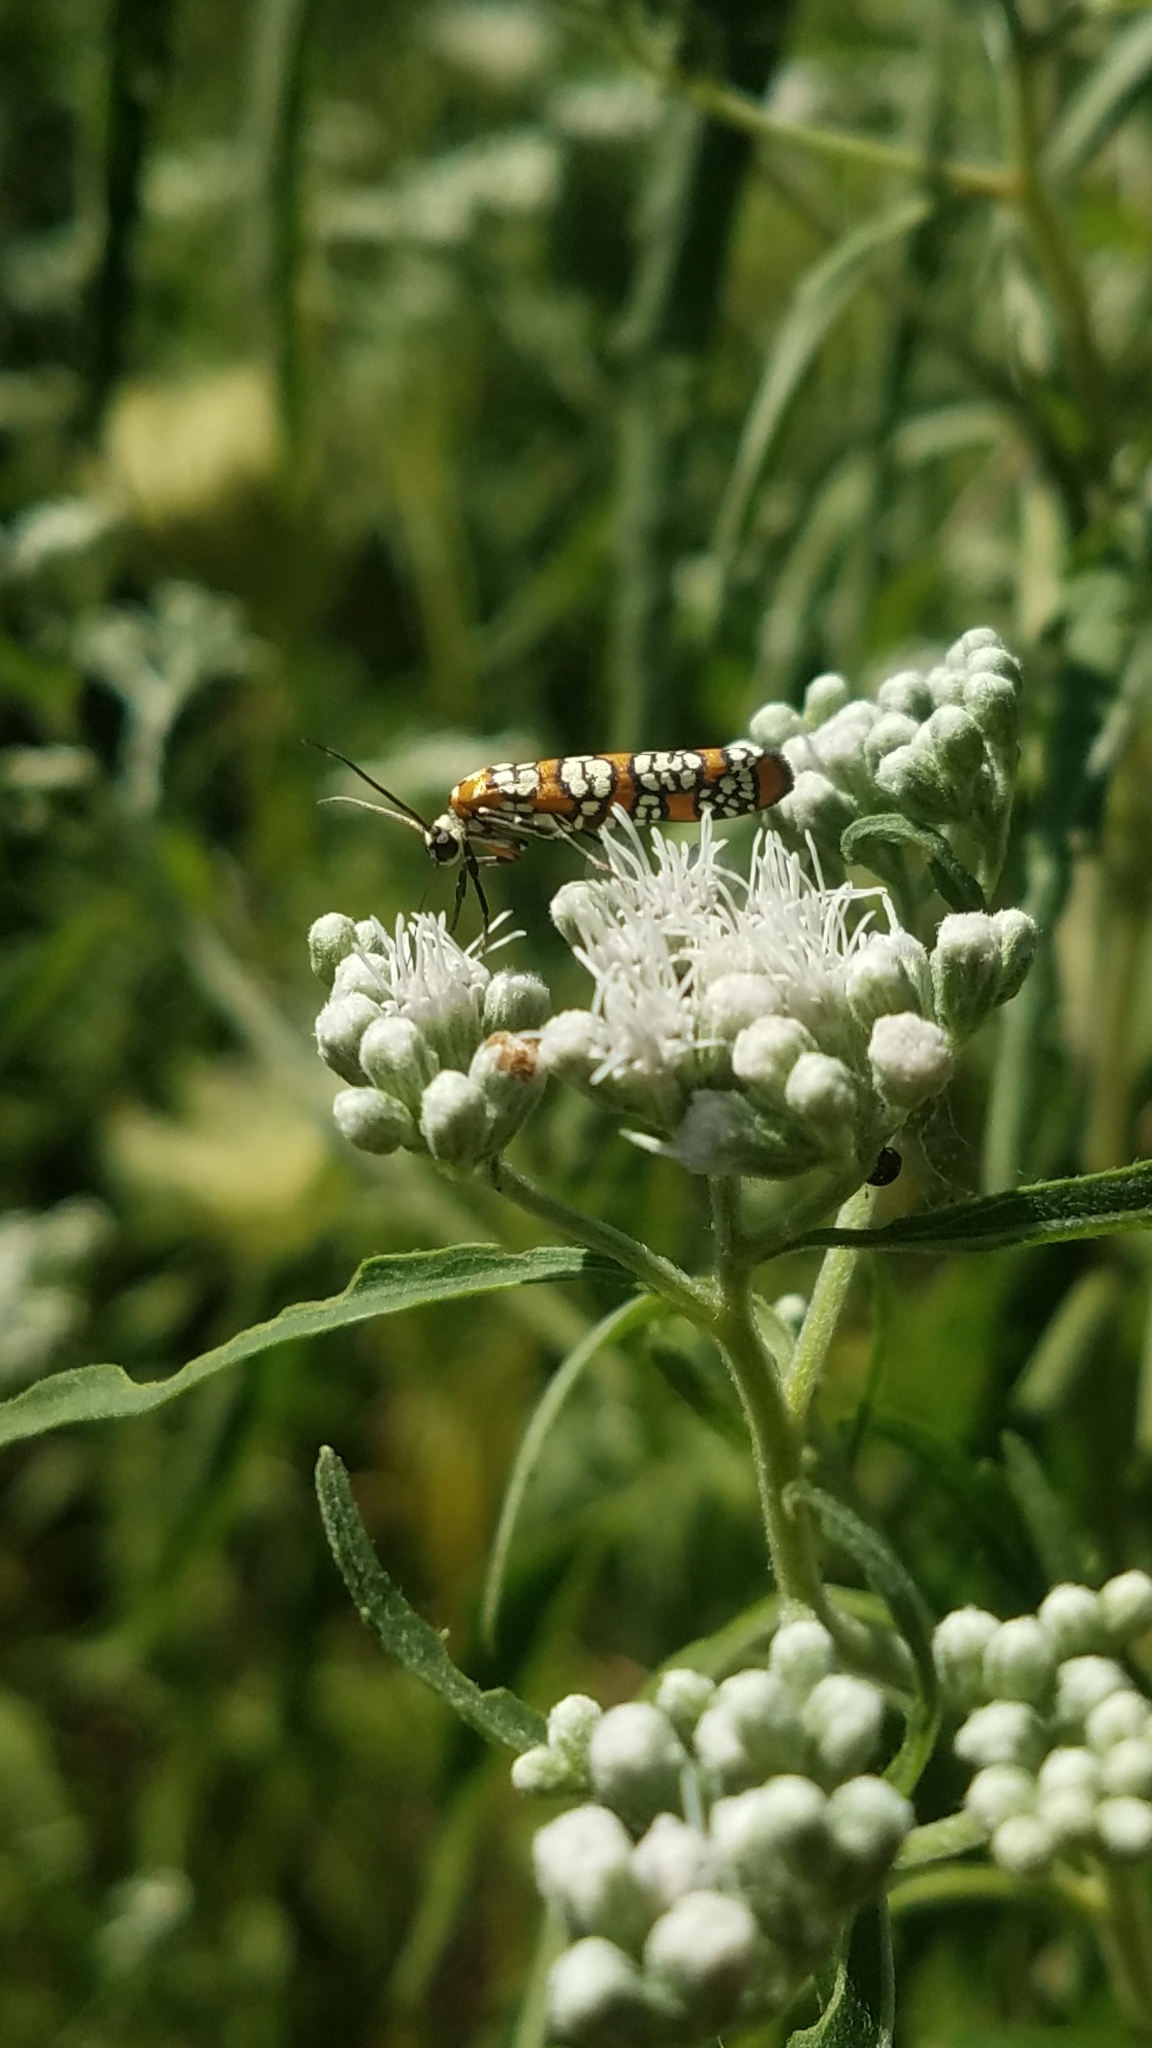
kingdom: Animalia
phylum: Arthropoda
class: Insecta
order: Lepidoptera
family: Attevidae
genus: Atteva
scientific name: Atteva punctella
